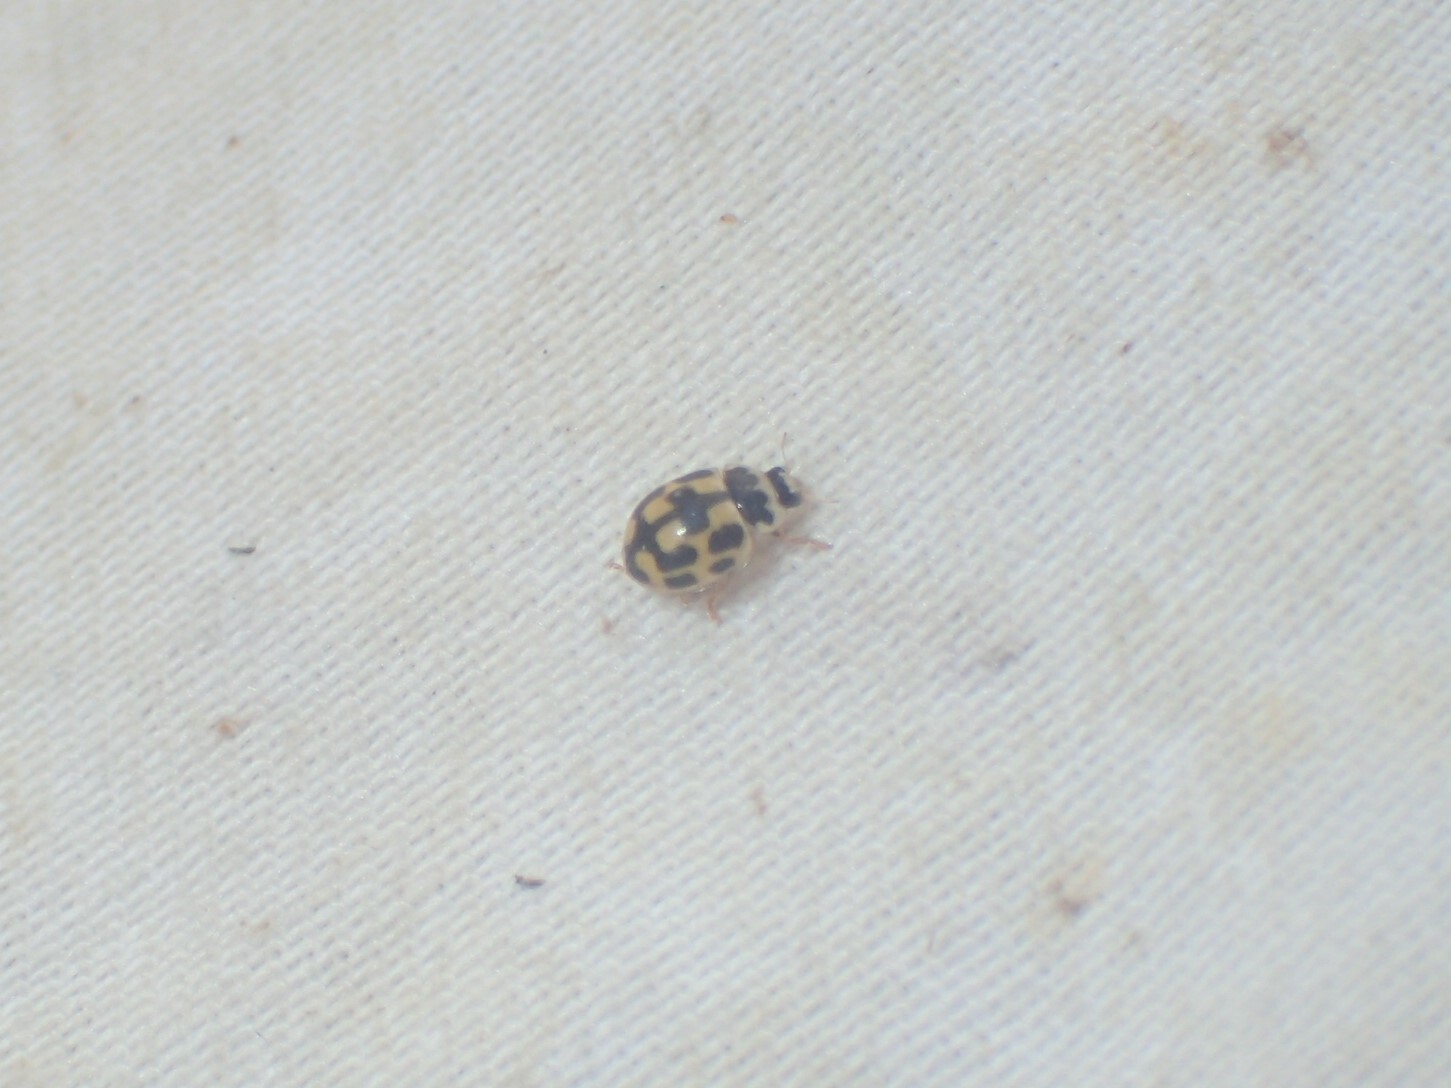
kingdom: Animalia
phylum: Arthropoda
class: Insecta
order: Coleoptera
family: Coccinellidae
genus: Propylaea
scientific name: Propylaea quatuordecimpunctata
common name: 14-spotted ladybird beetle
